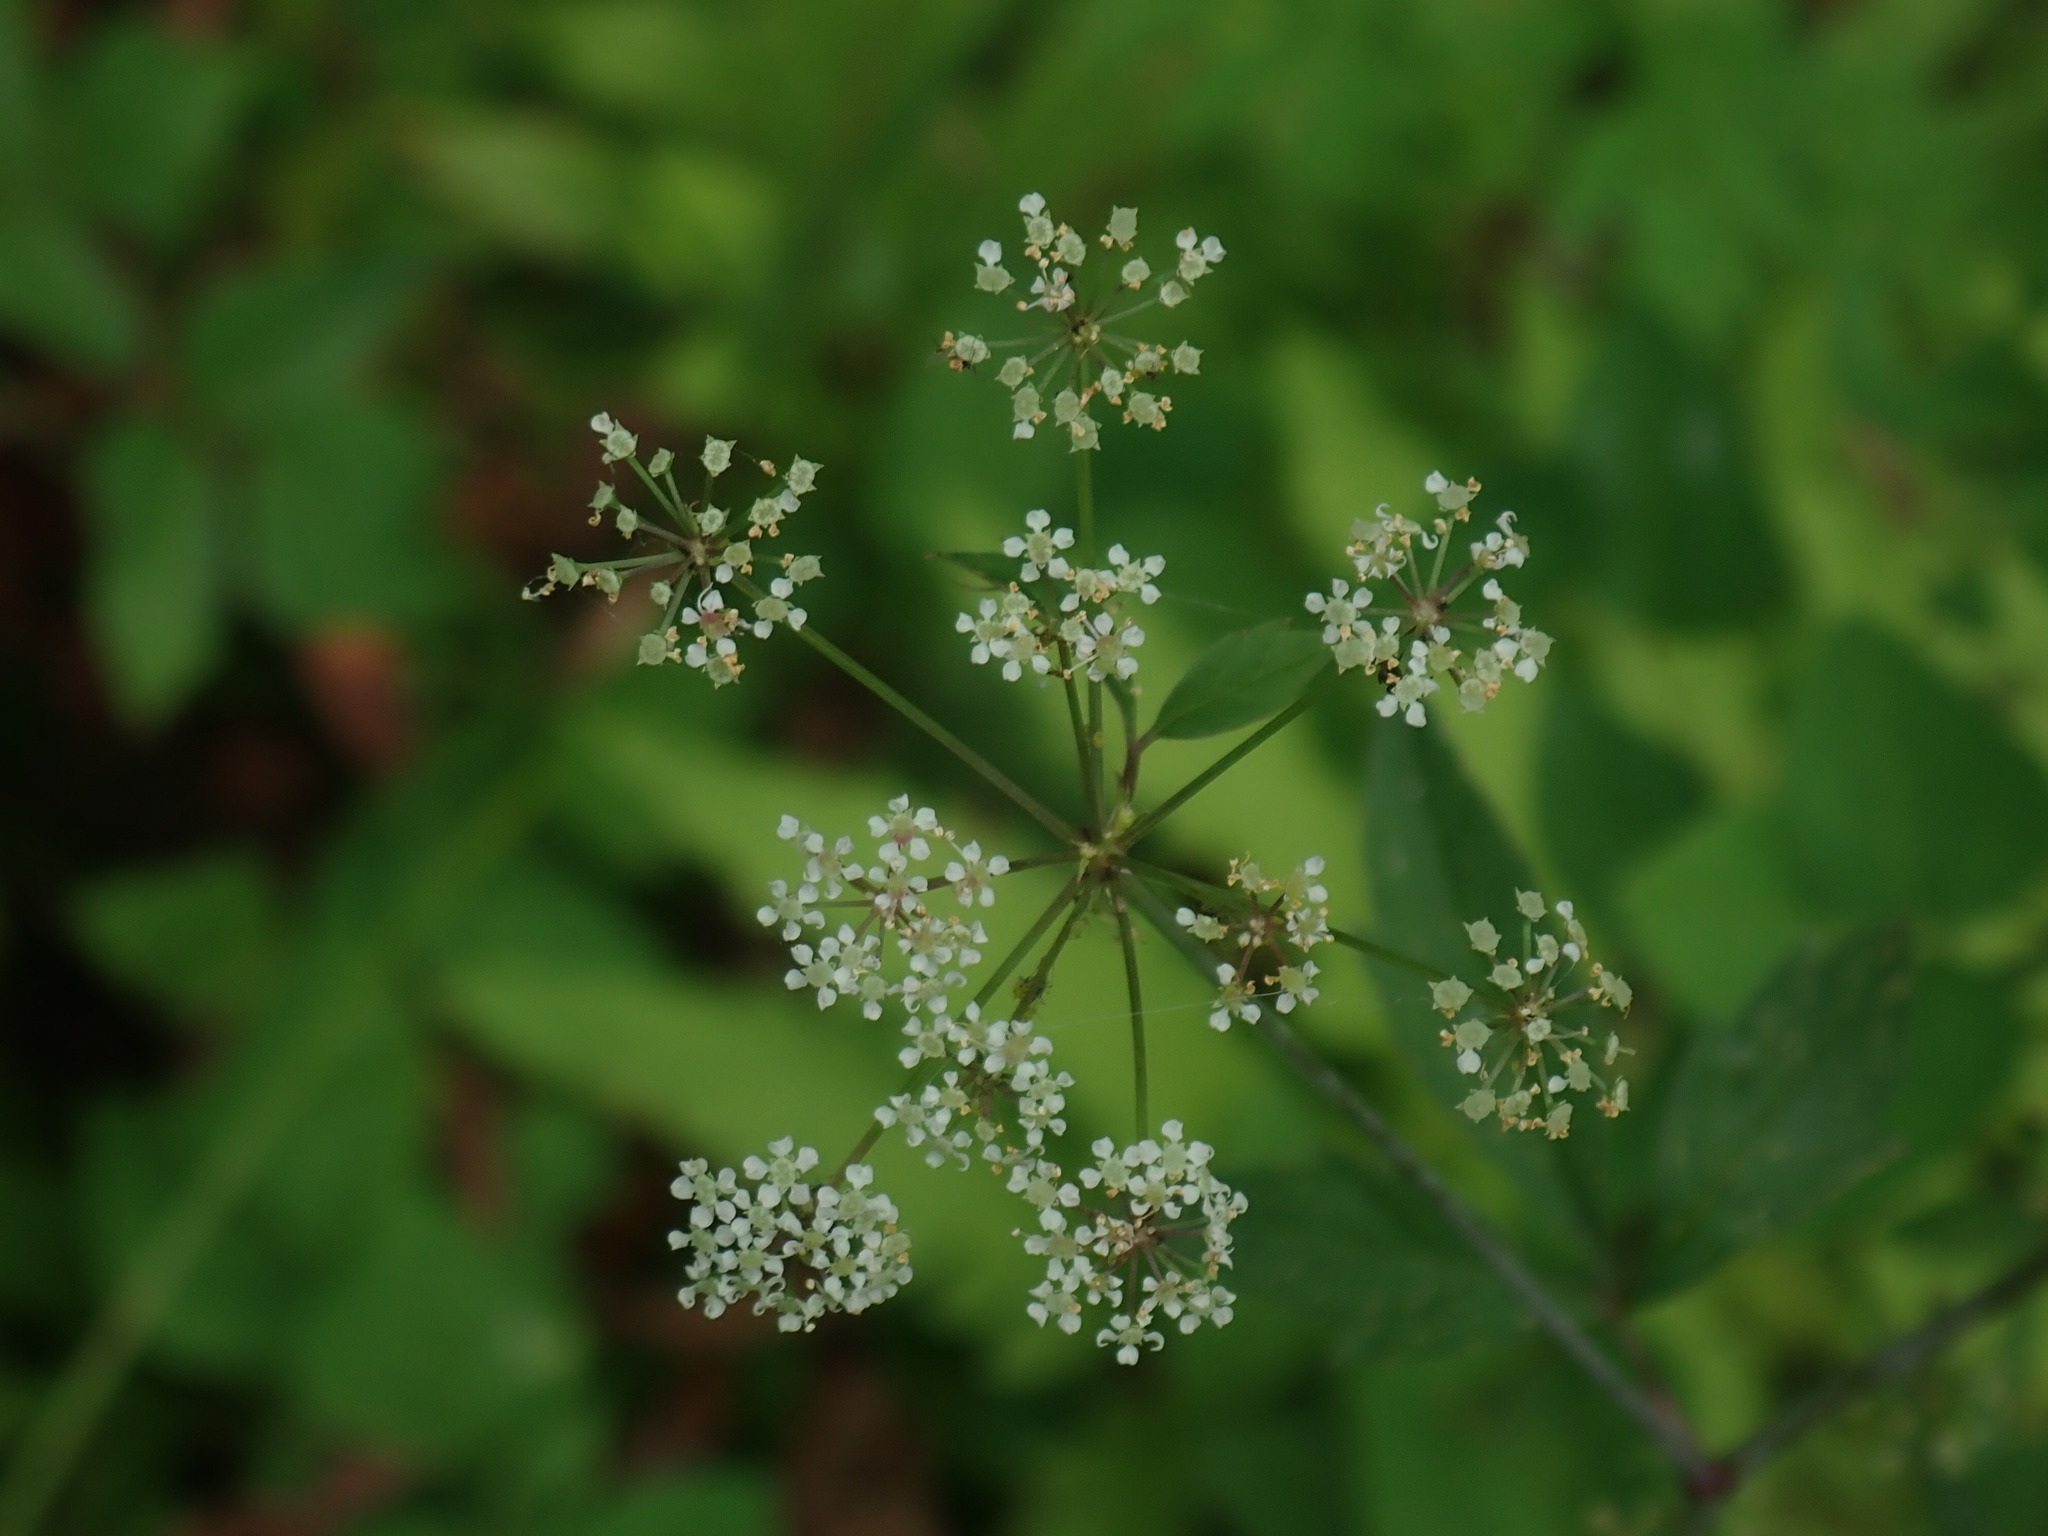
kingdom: Plantae
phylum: Tracheophyta
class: Magnoliopsida
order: Apiales
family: Apiaceae
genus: Cicuta
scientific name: Cicuta maculata
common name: Spotted cowbane
